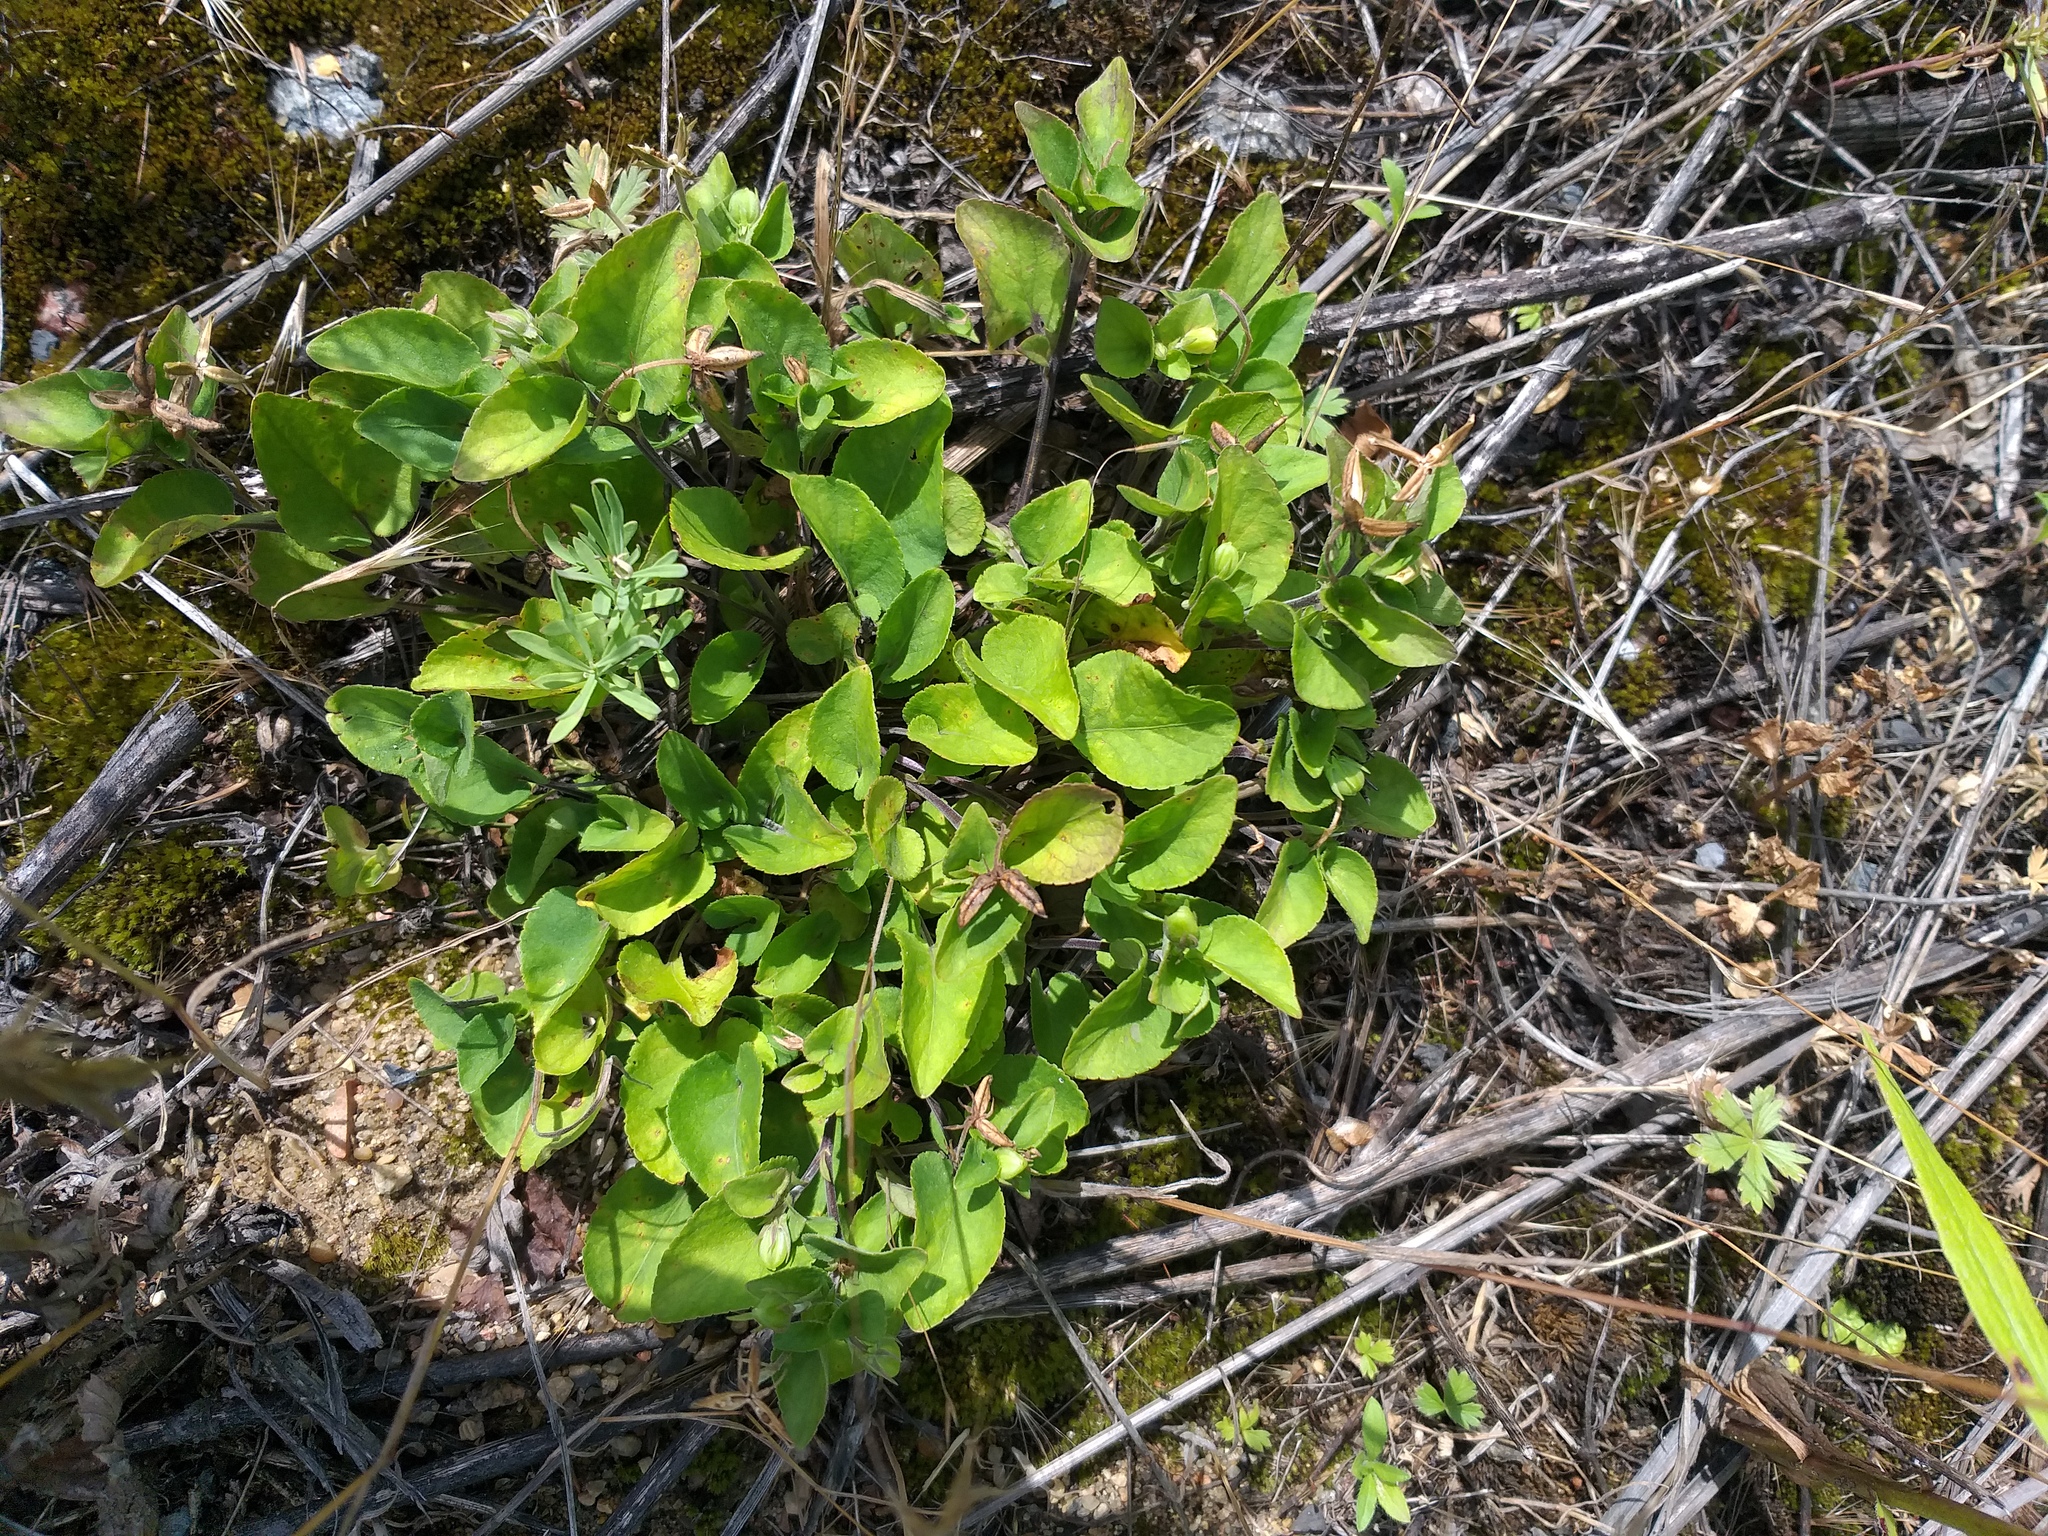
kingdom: Plantae
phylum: Tracheophyta
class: Magnoliopsida
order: Malpighiales
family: Violaceae
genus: Viola
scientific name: Viola rupestris
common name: Teesdale violet
